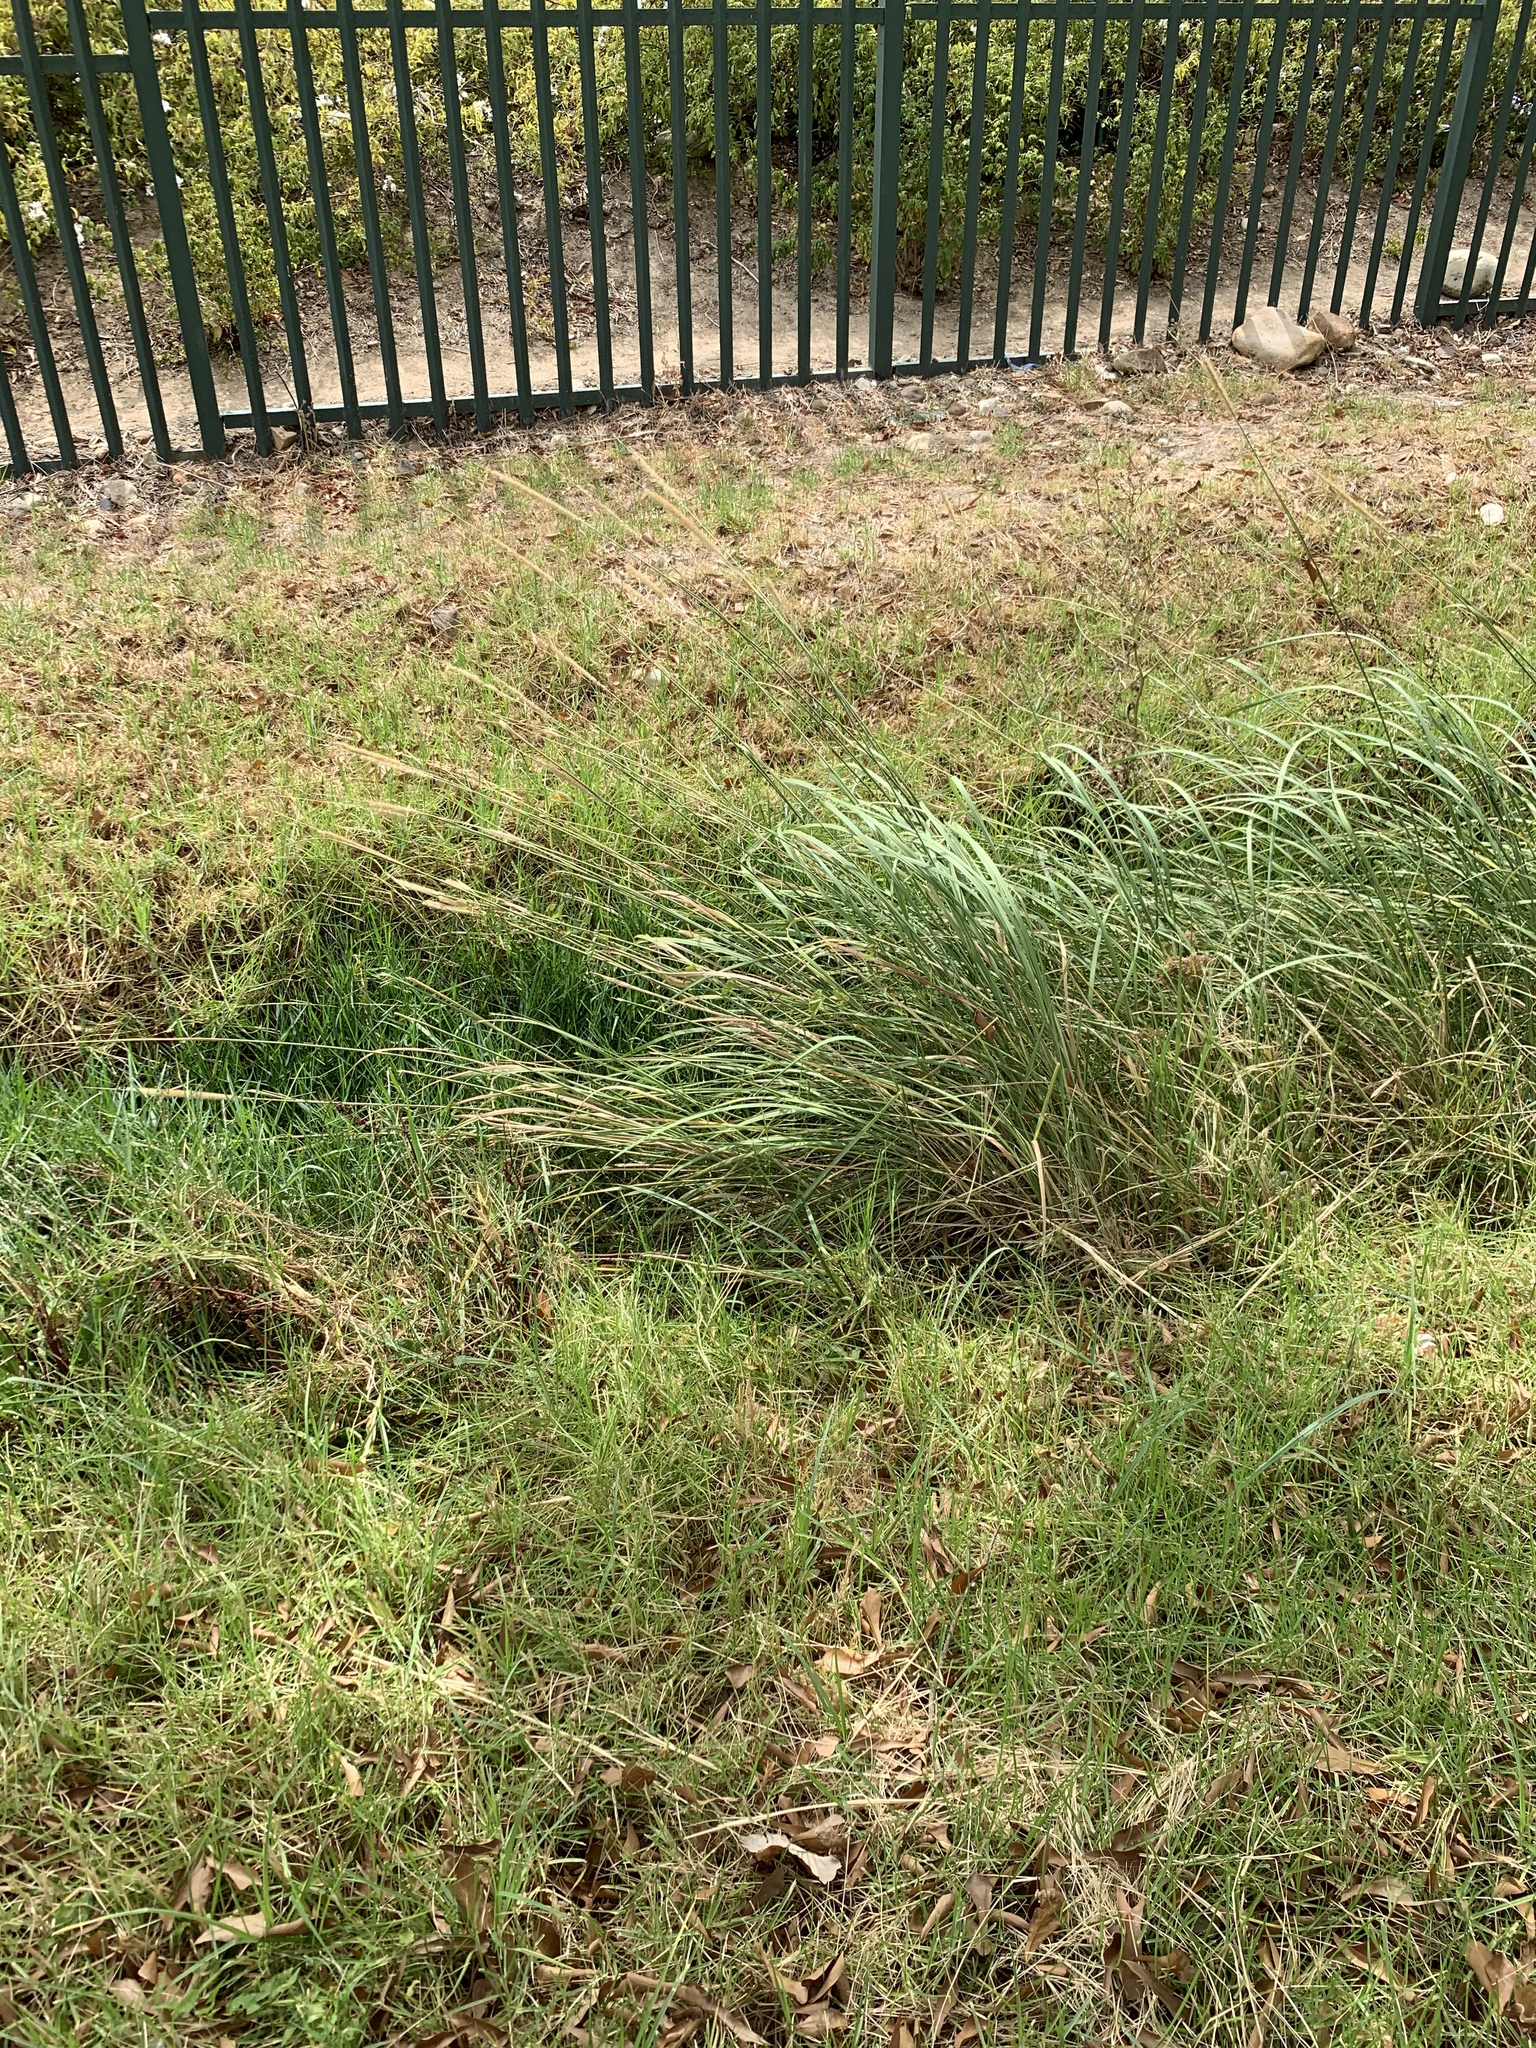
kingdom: Plantae
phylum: Tracheophyta
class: Liliopsida
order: Poales
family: Poaceae
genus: Cenchrus
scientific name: Cenchrus caudatus
